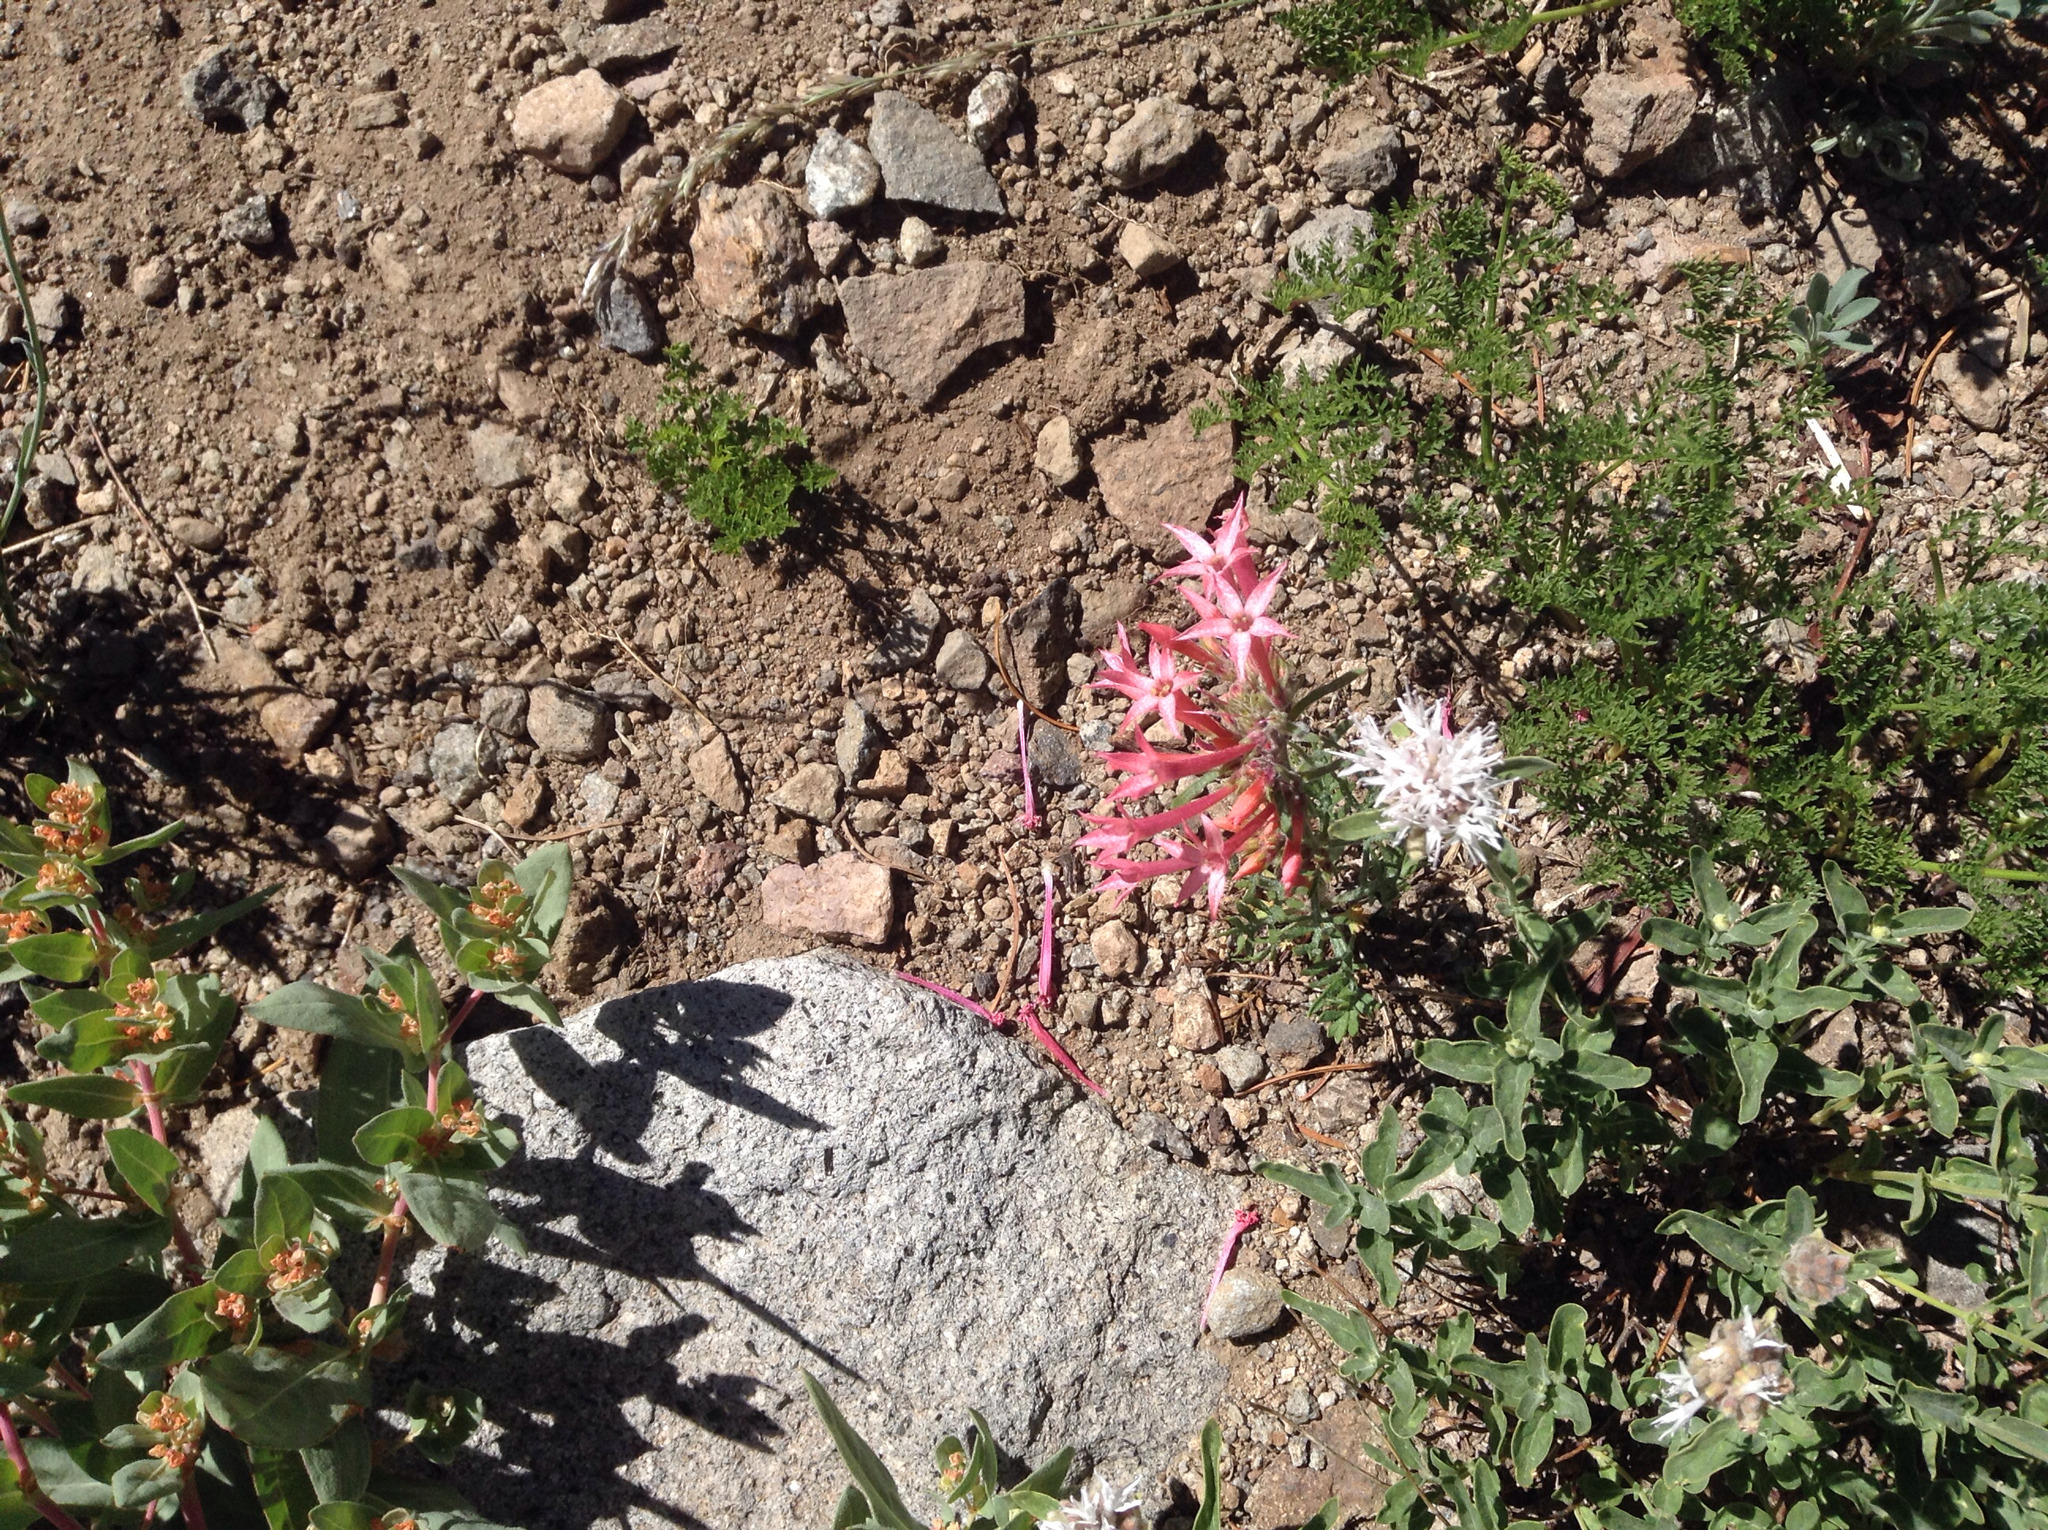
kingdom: Plantae
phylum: Tracheophyta
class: Magnoliopsida
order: Ericales
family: Polemoniaceae
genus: Ipomopsis
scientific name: Ipomopsis tenuituba
